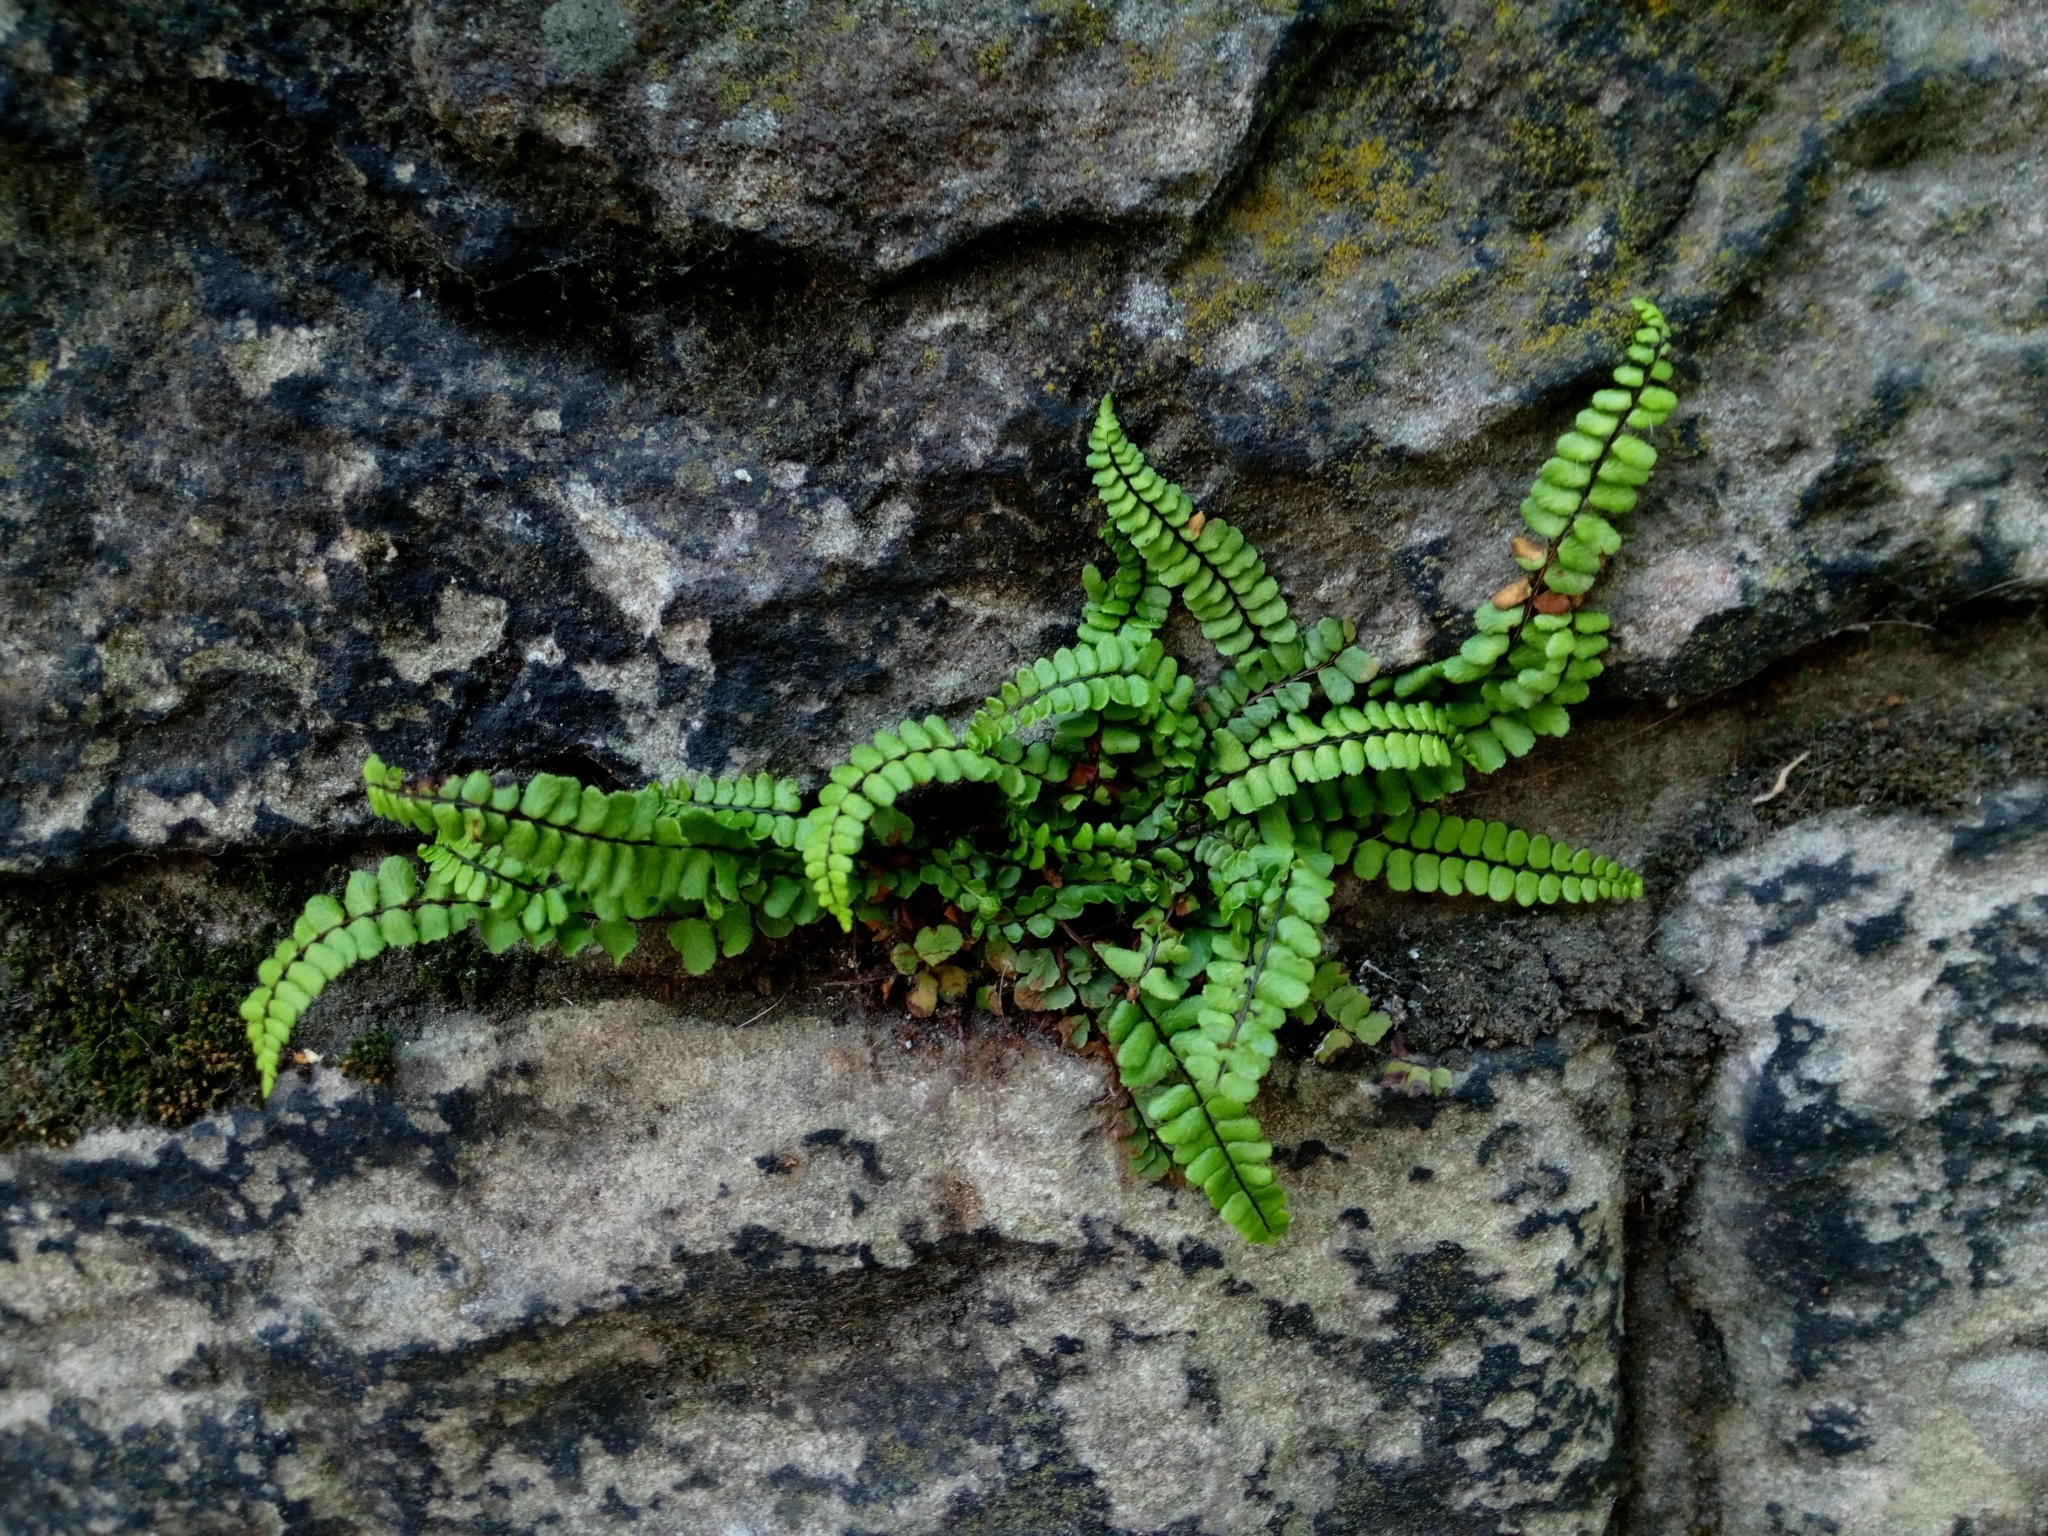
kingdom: Plantae
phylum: Tracheophyta
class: Polypodiopsida
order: Polypodiales
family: Aspleniaceae
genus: Asplenium
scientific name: Asplenium trichomanes
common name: Maidenhair spleenwort
